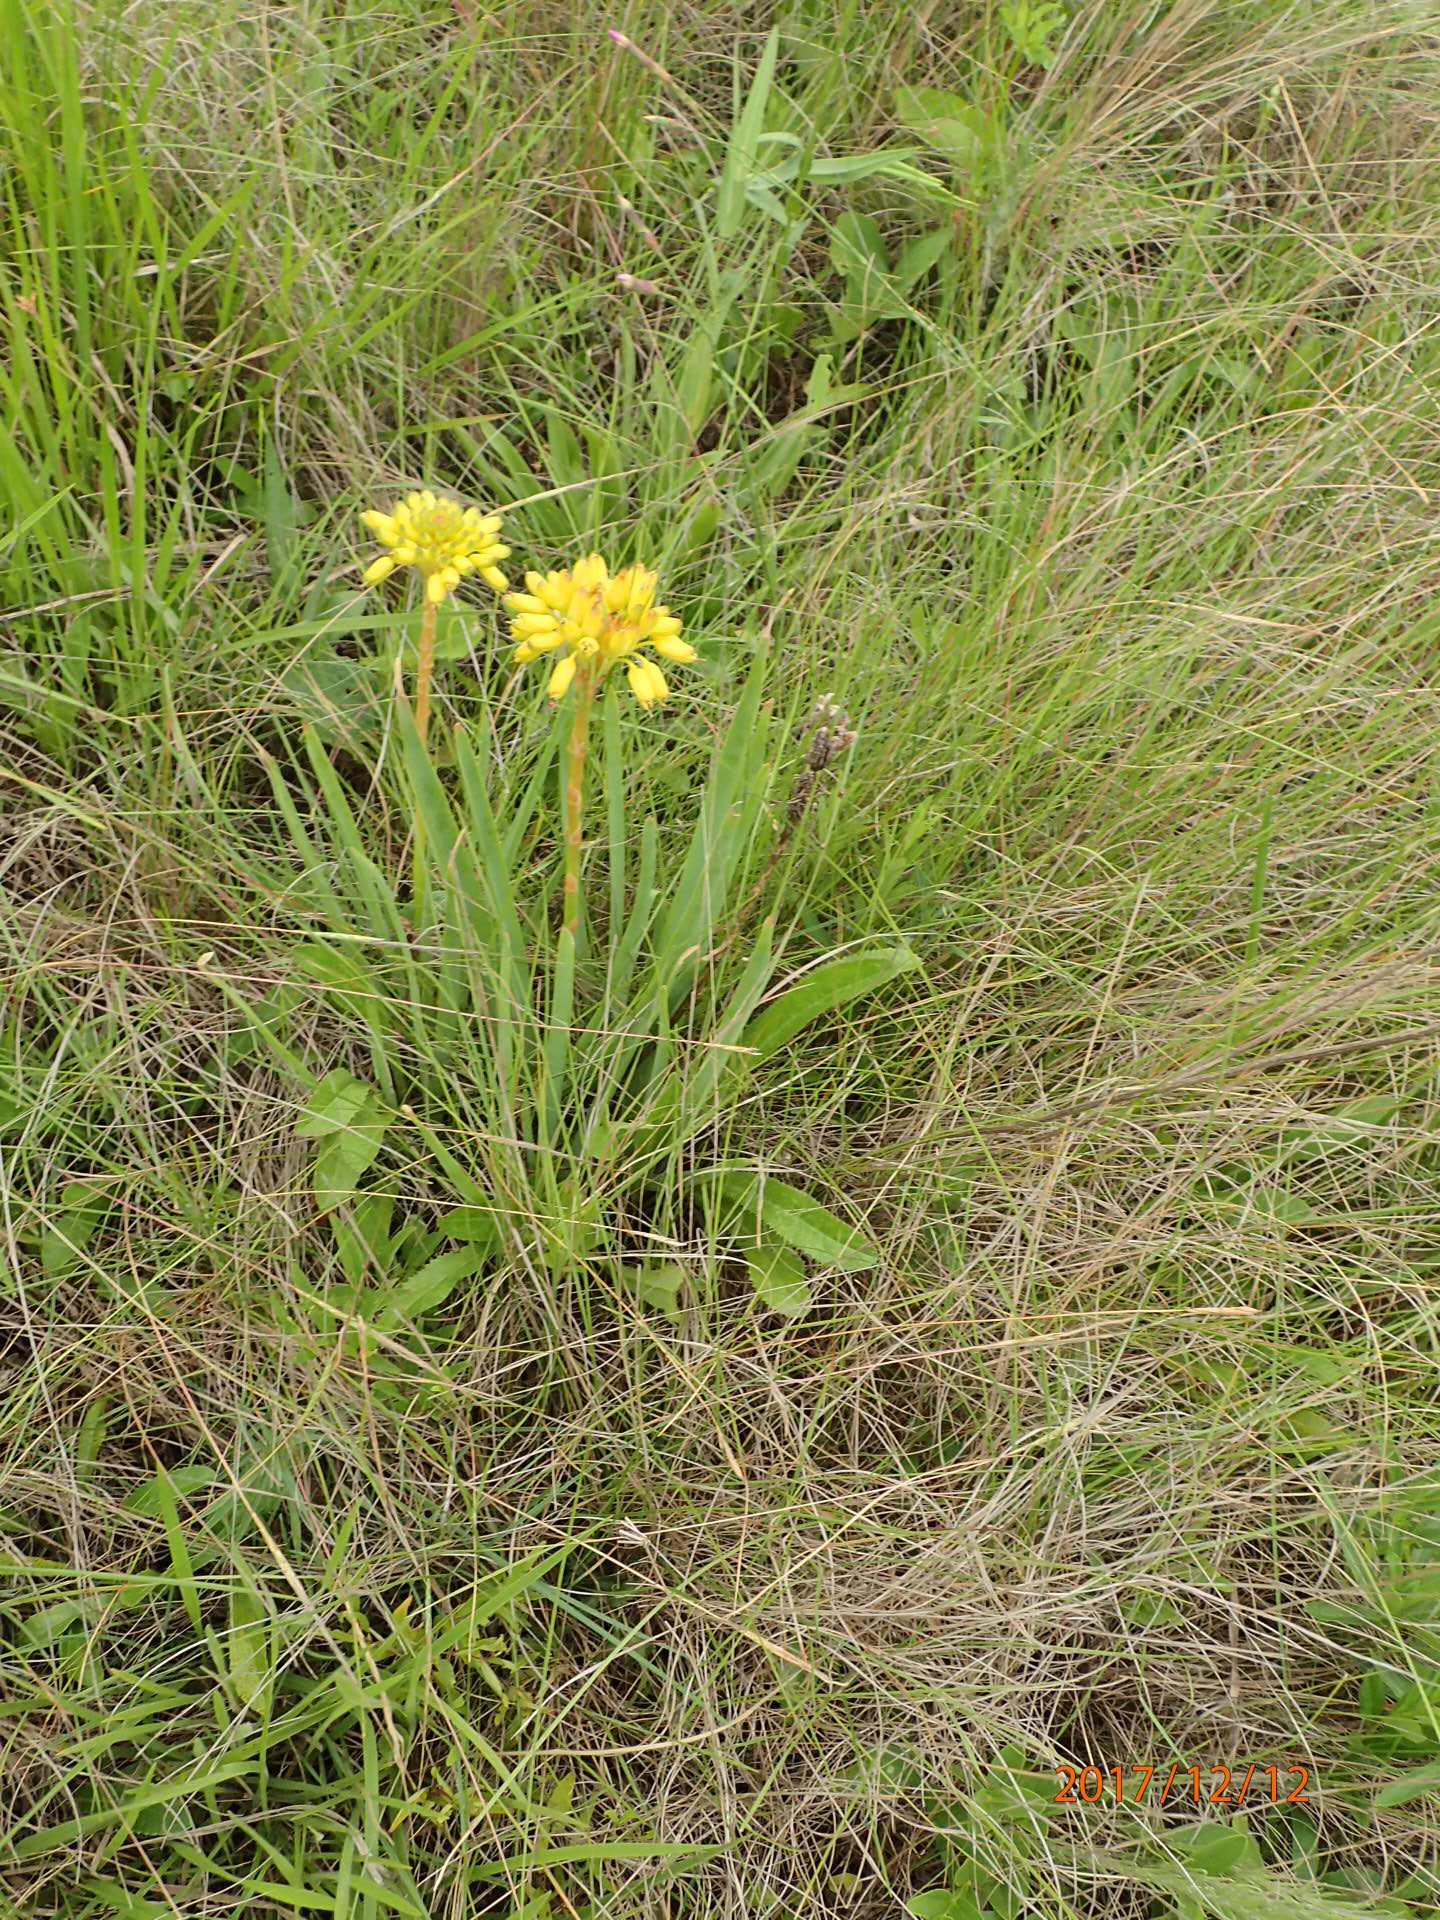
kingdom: Plantae
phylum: Tracheophyta
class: Liliopsida
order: Asparagales
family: Asphodelaceae
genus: Aloe
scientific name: Aloe ecklonis
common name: Ecklon's aloe
